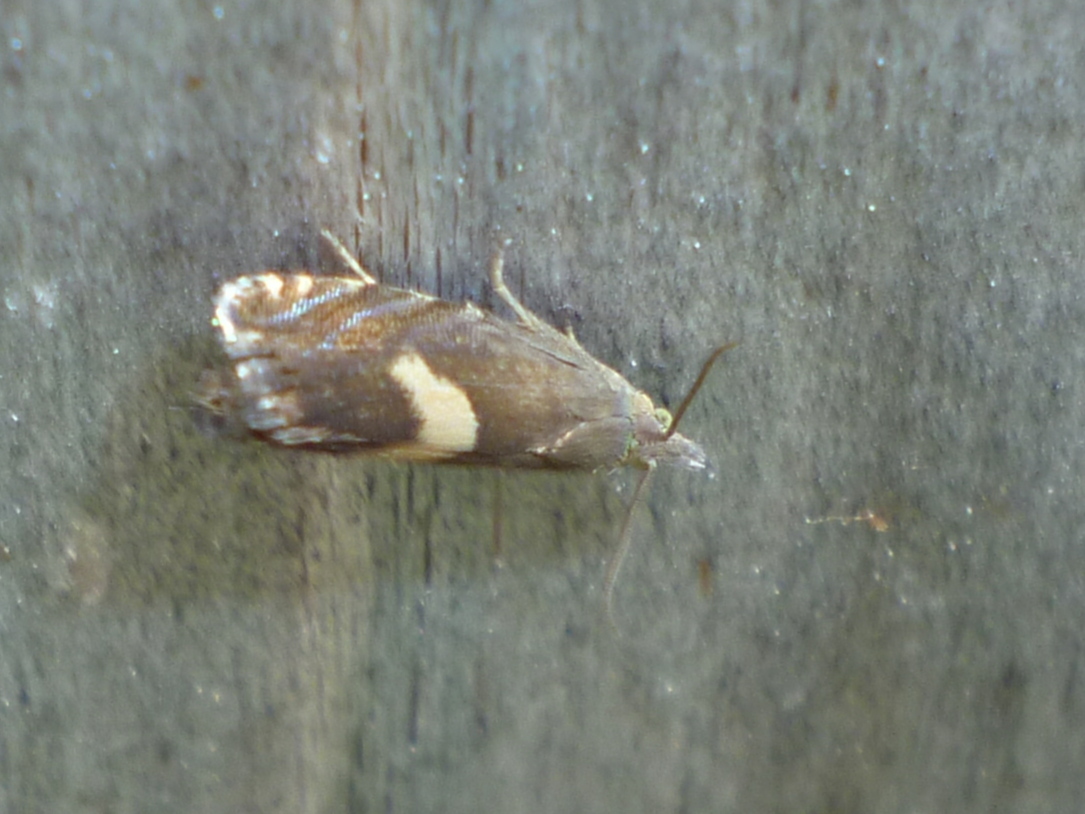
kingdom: Animalia
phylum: Arthropoda
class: Insecta
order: Lepidoptera
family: Tortricidae
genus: Dichrorampha
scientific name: Dichrorampha simulana
